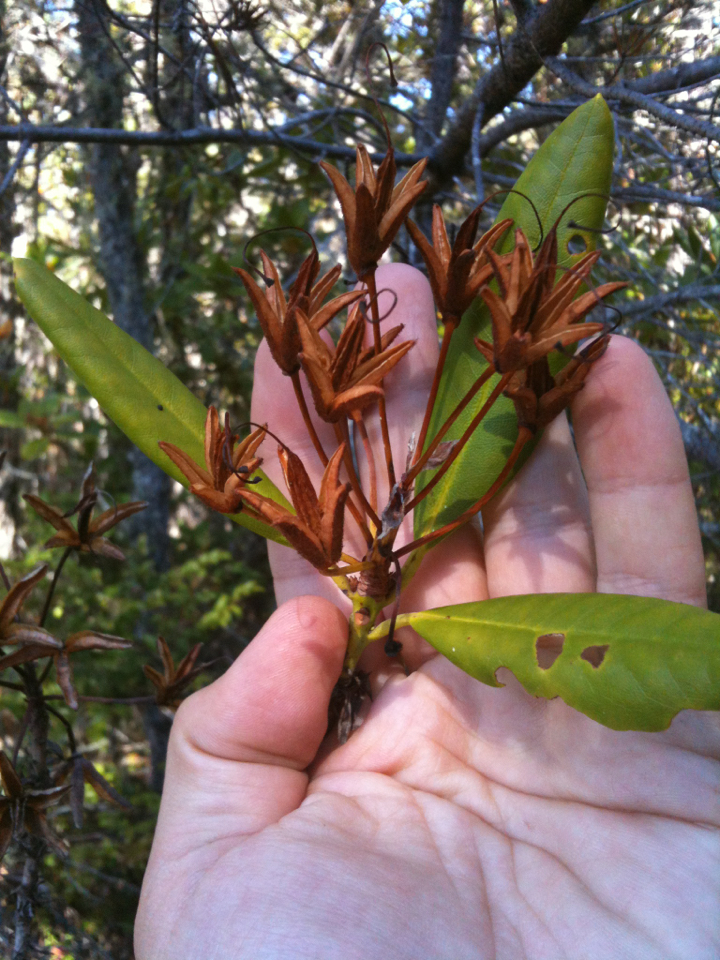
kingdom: Plantae
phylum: Tracheophyta
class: Magnoliopsida
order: Ericales
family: Ericaceae
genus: Rhododendron
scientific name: Rhododendron macrophyllum
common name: California rose bay
